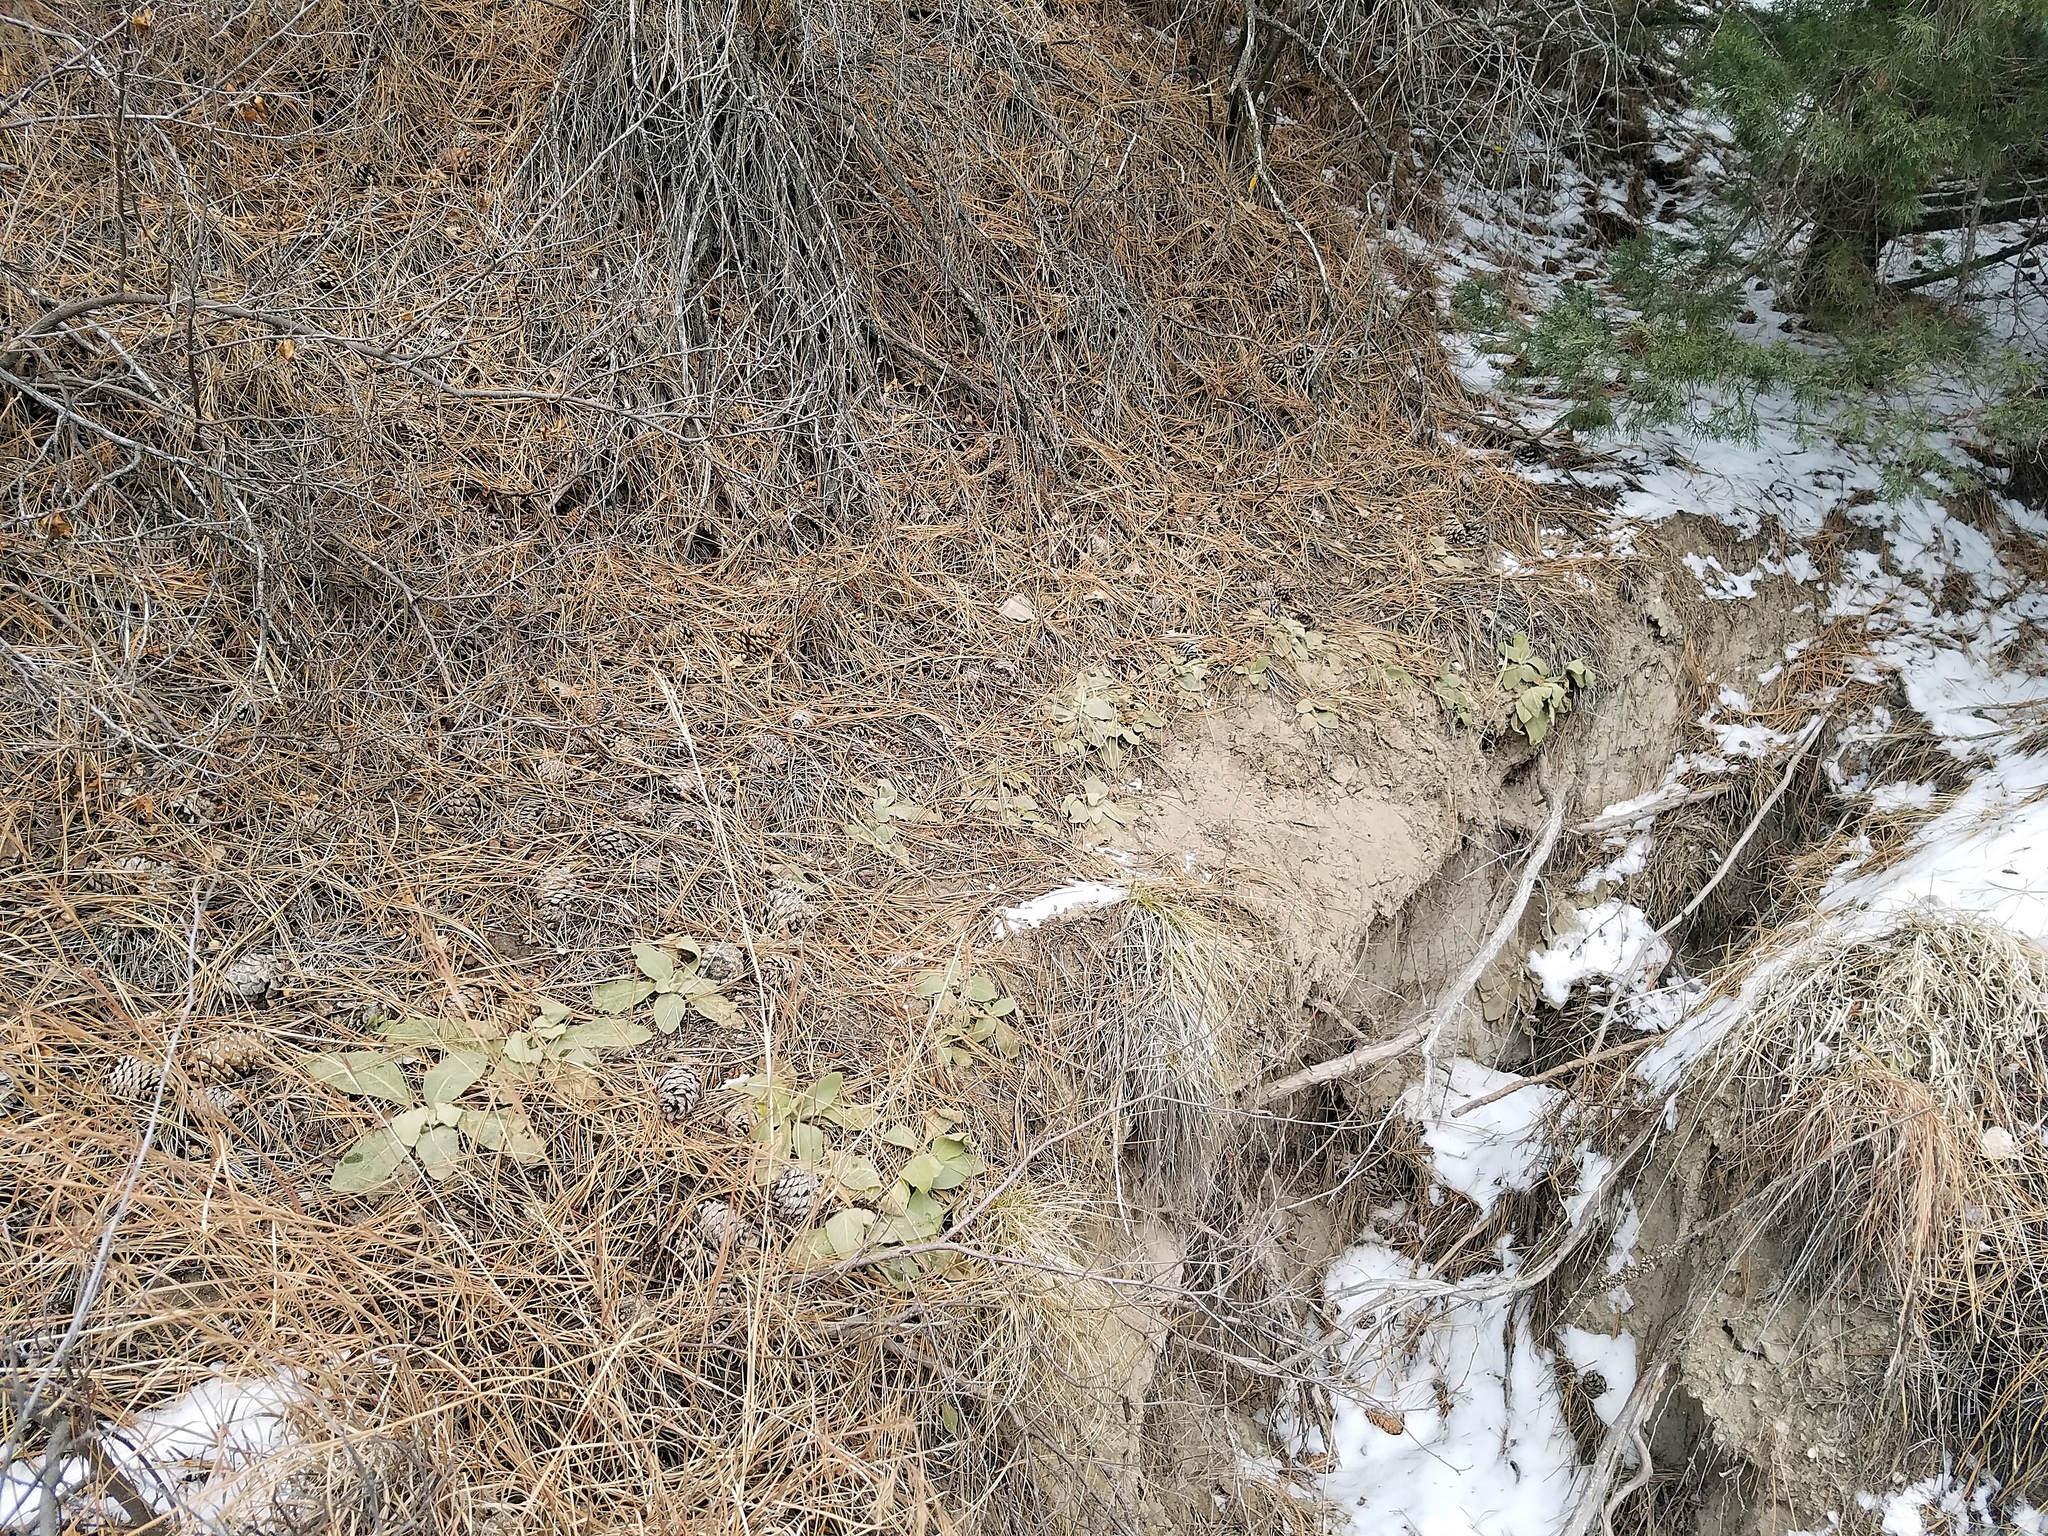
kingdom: Plantae
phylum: Tracheophyta
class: Magnoliopsida
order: Lamiales
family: Scrophulariaceae
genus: Verbascum
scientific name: Verbascum thapsus
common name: Common mullein
